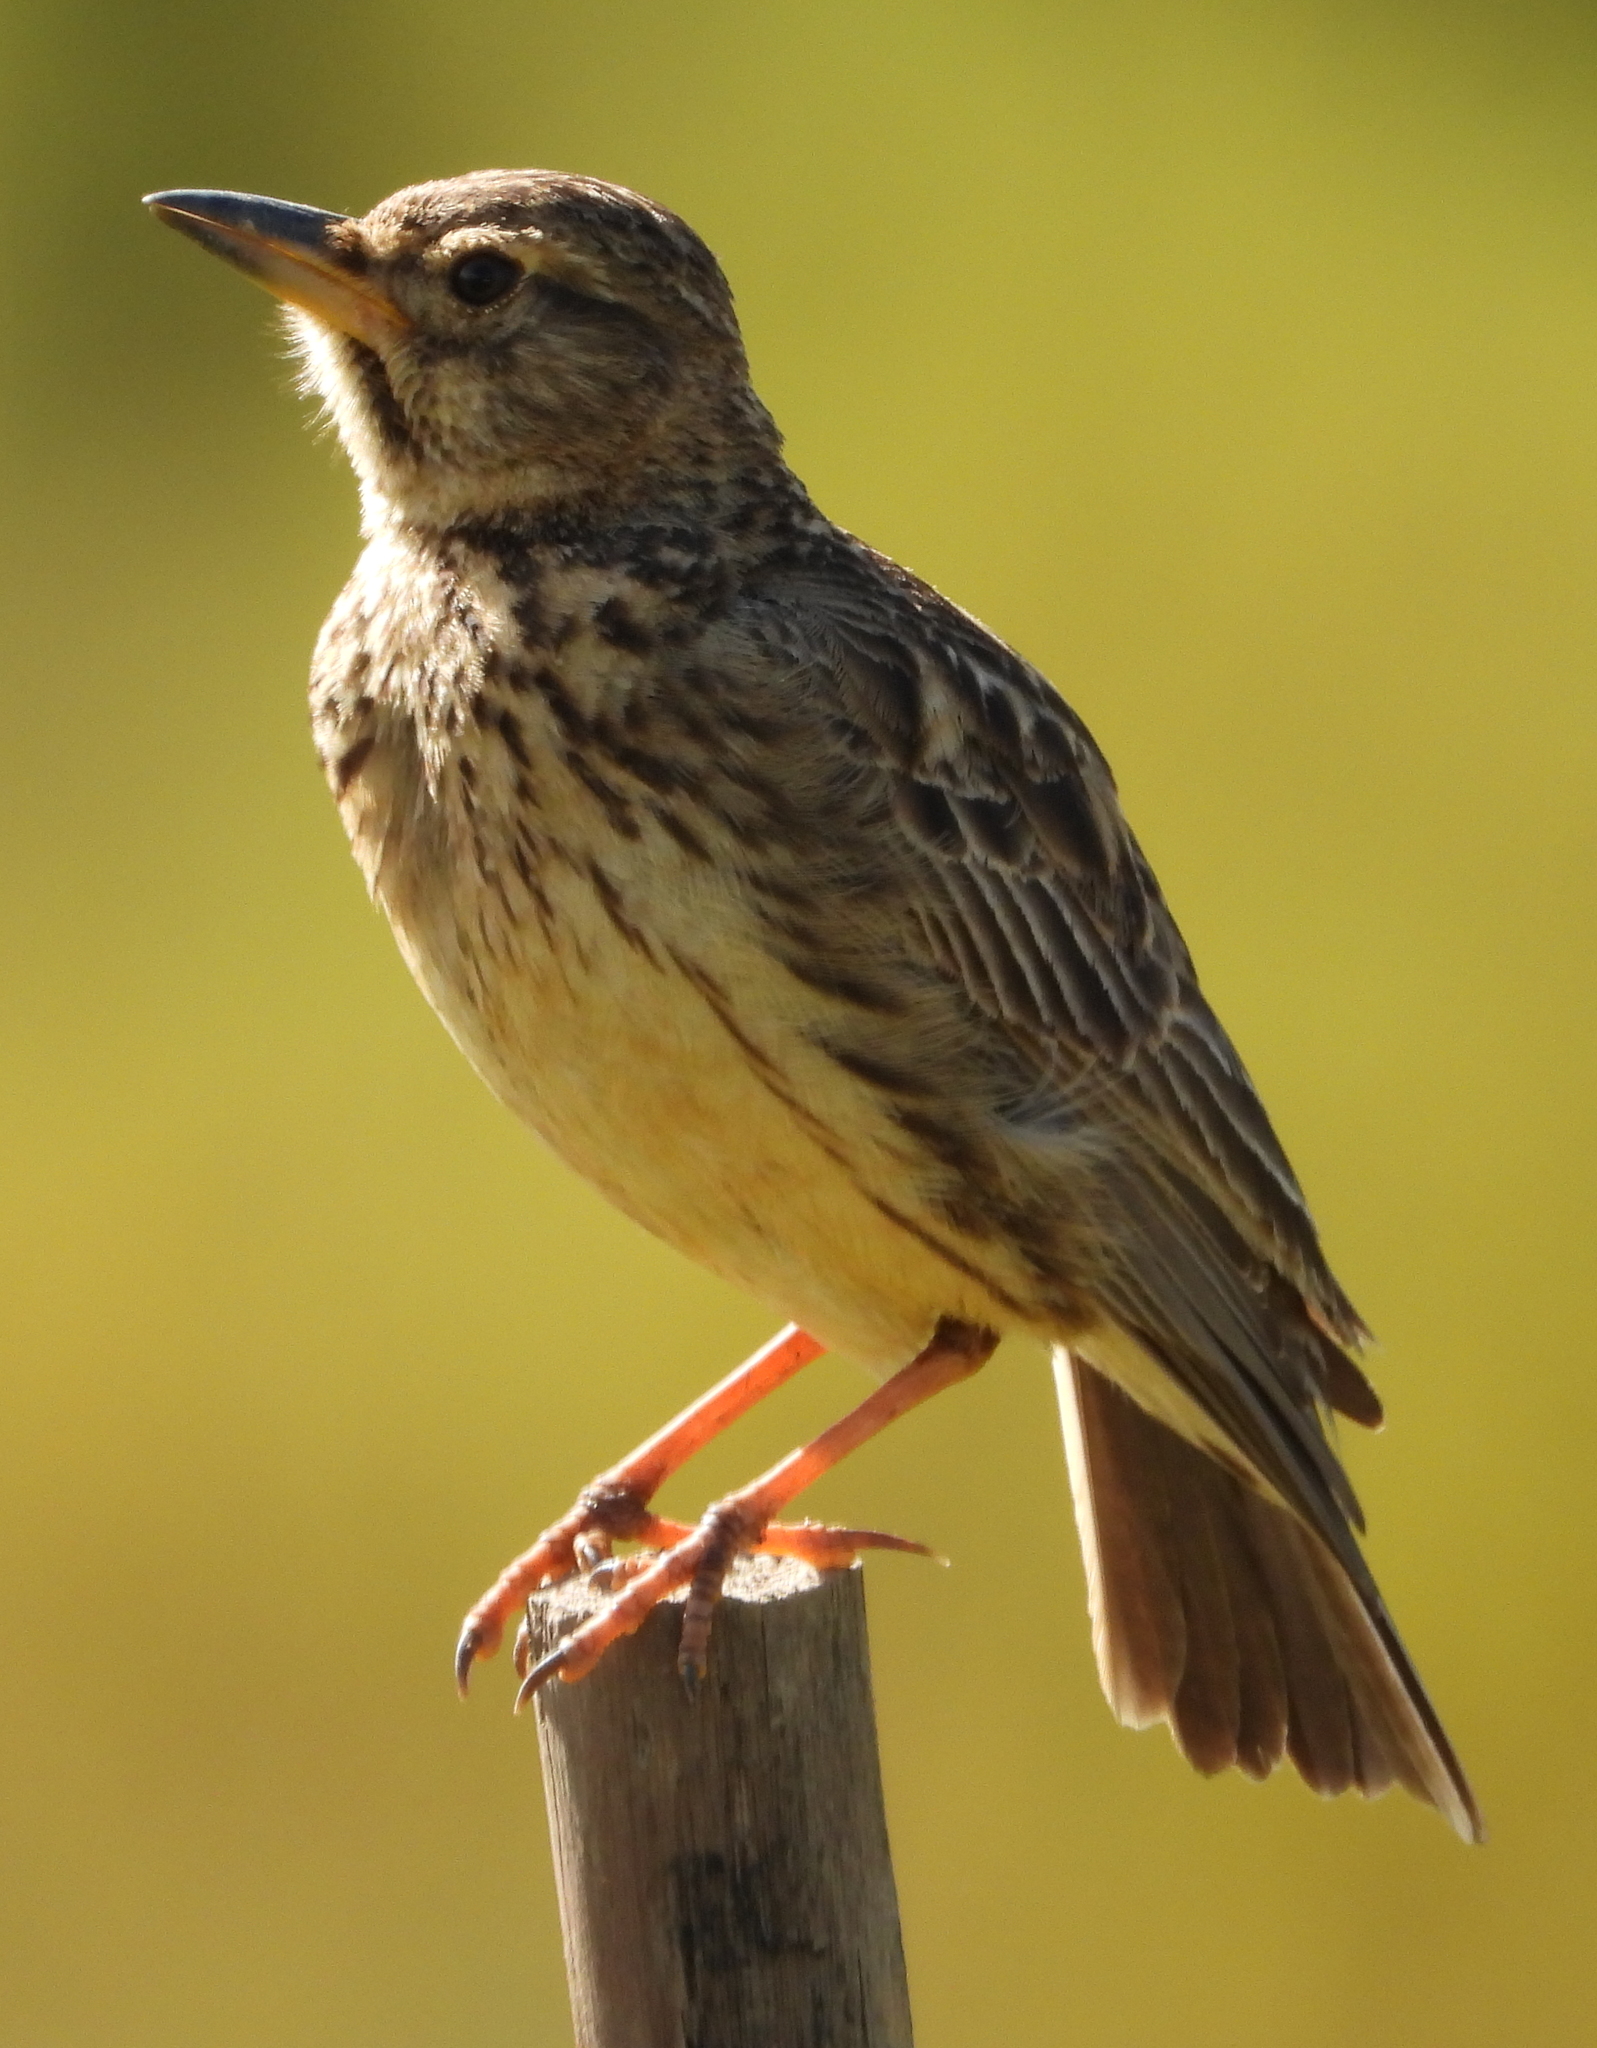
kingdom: Animalia
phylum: Chordata
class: Aves
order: Passeriformes
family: Alaudidae
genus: Galerida
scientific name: Galerida magnirostris
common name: Large-billed lark
